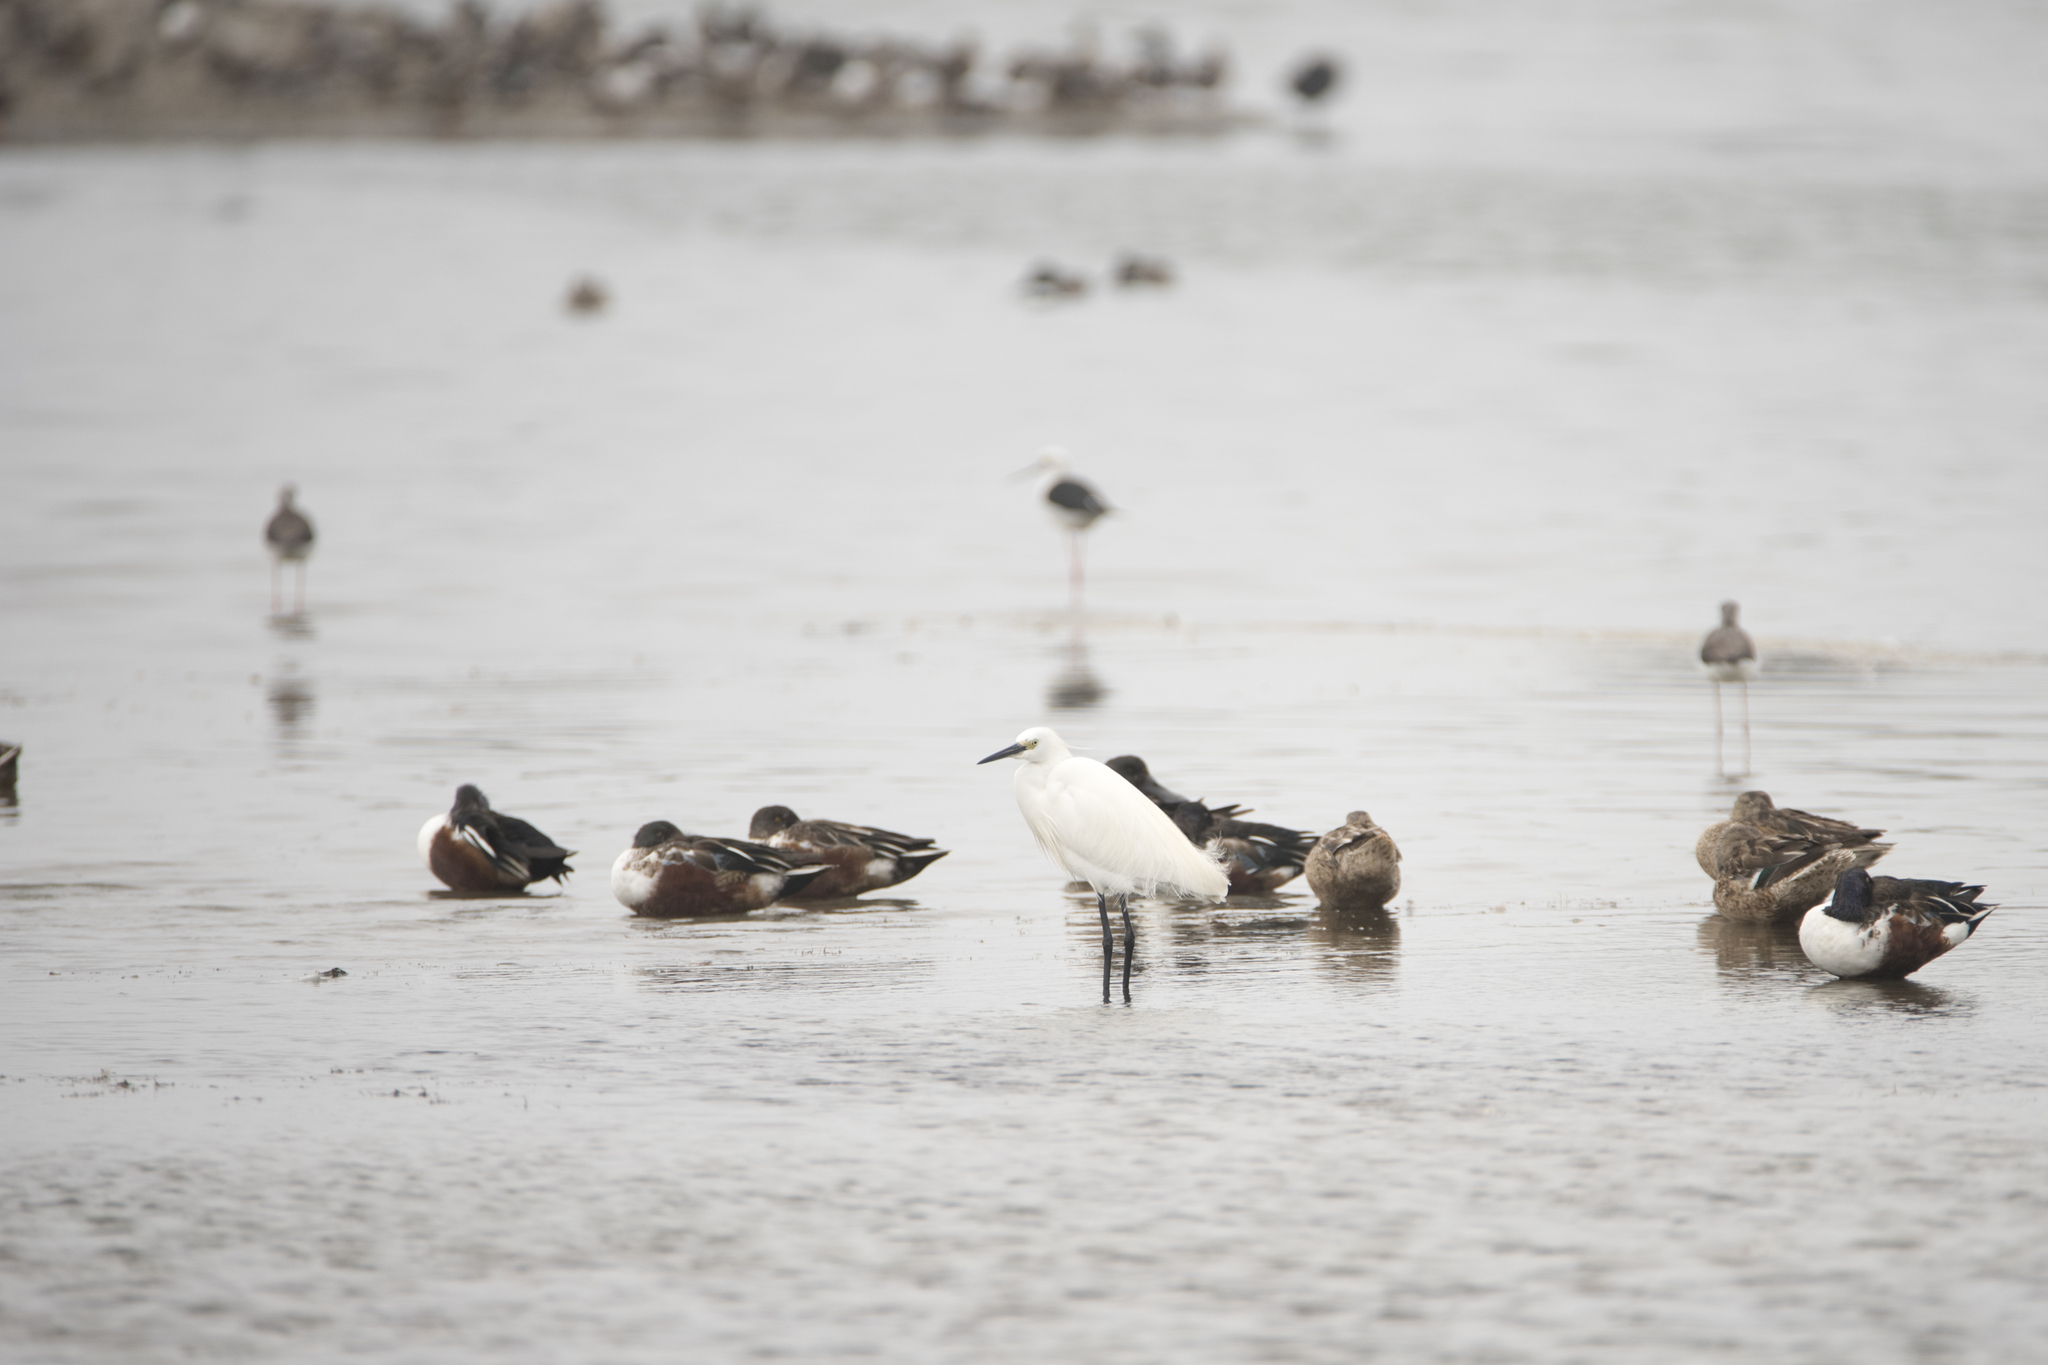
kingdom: Animalia
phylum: Chordata
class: Aves
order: Pelecaniformes
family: Ardeidae
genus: Egretta
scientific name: Egretta garzetta
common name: Little egret
